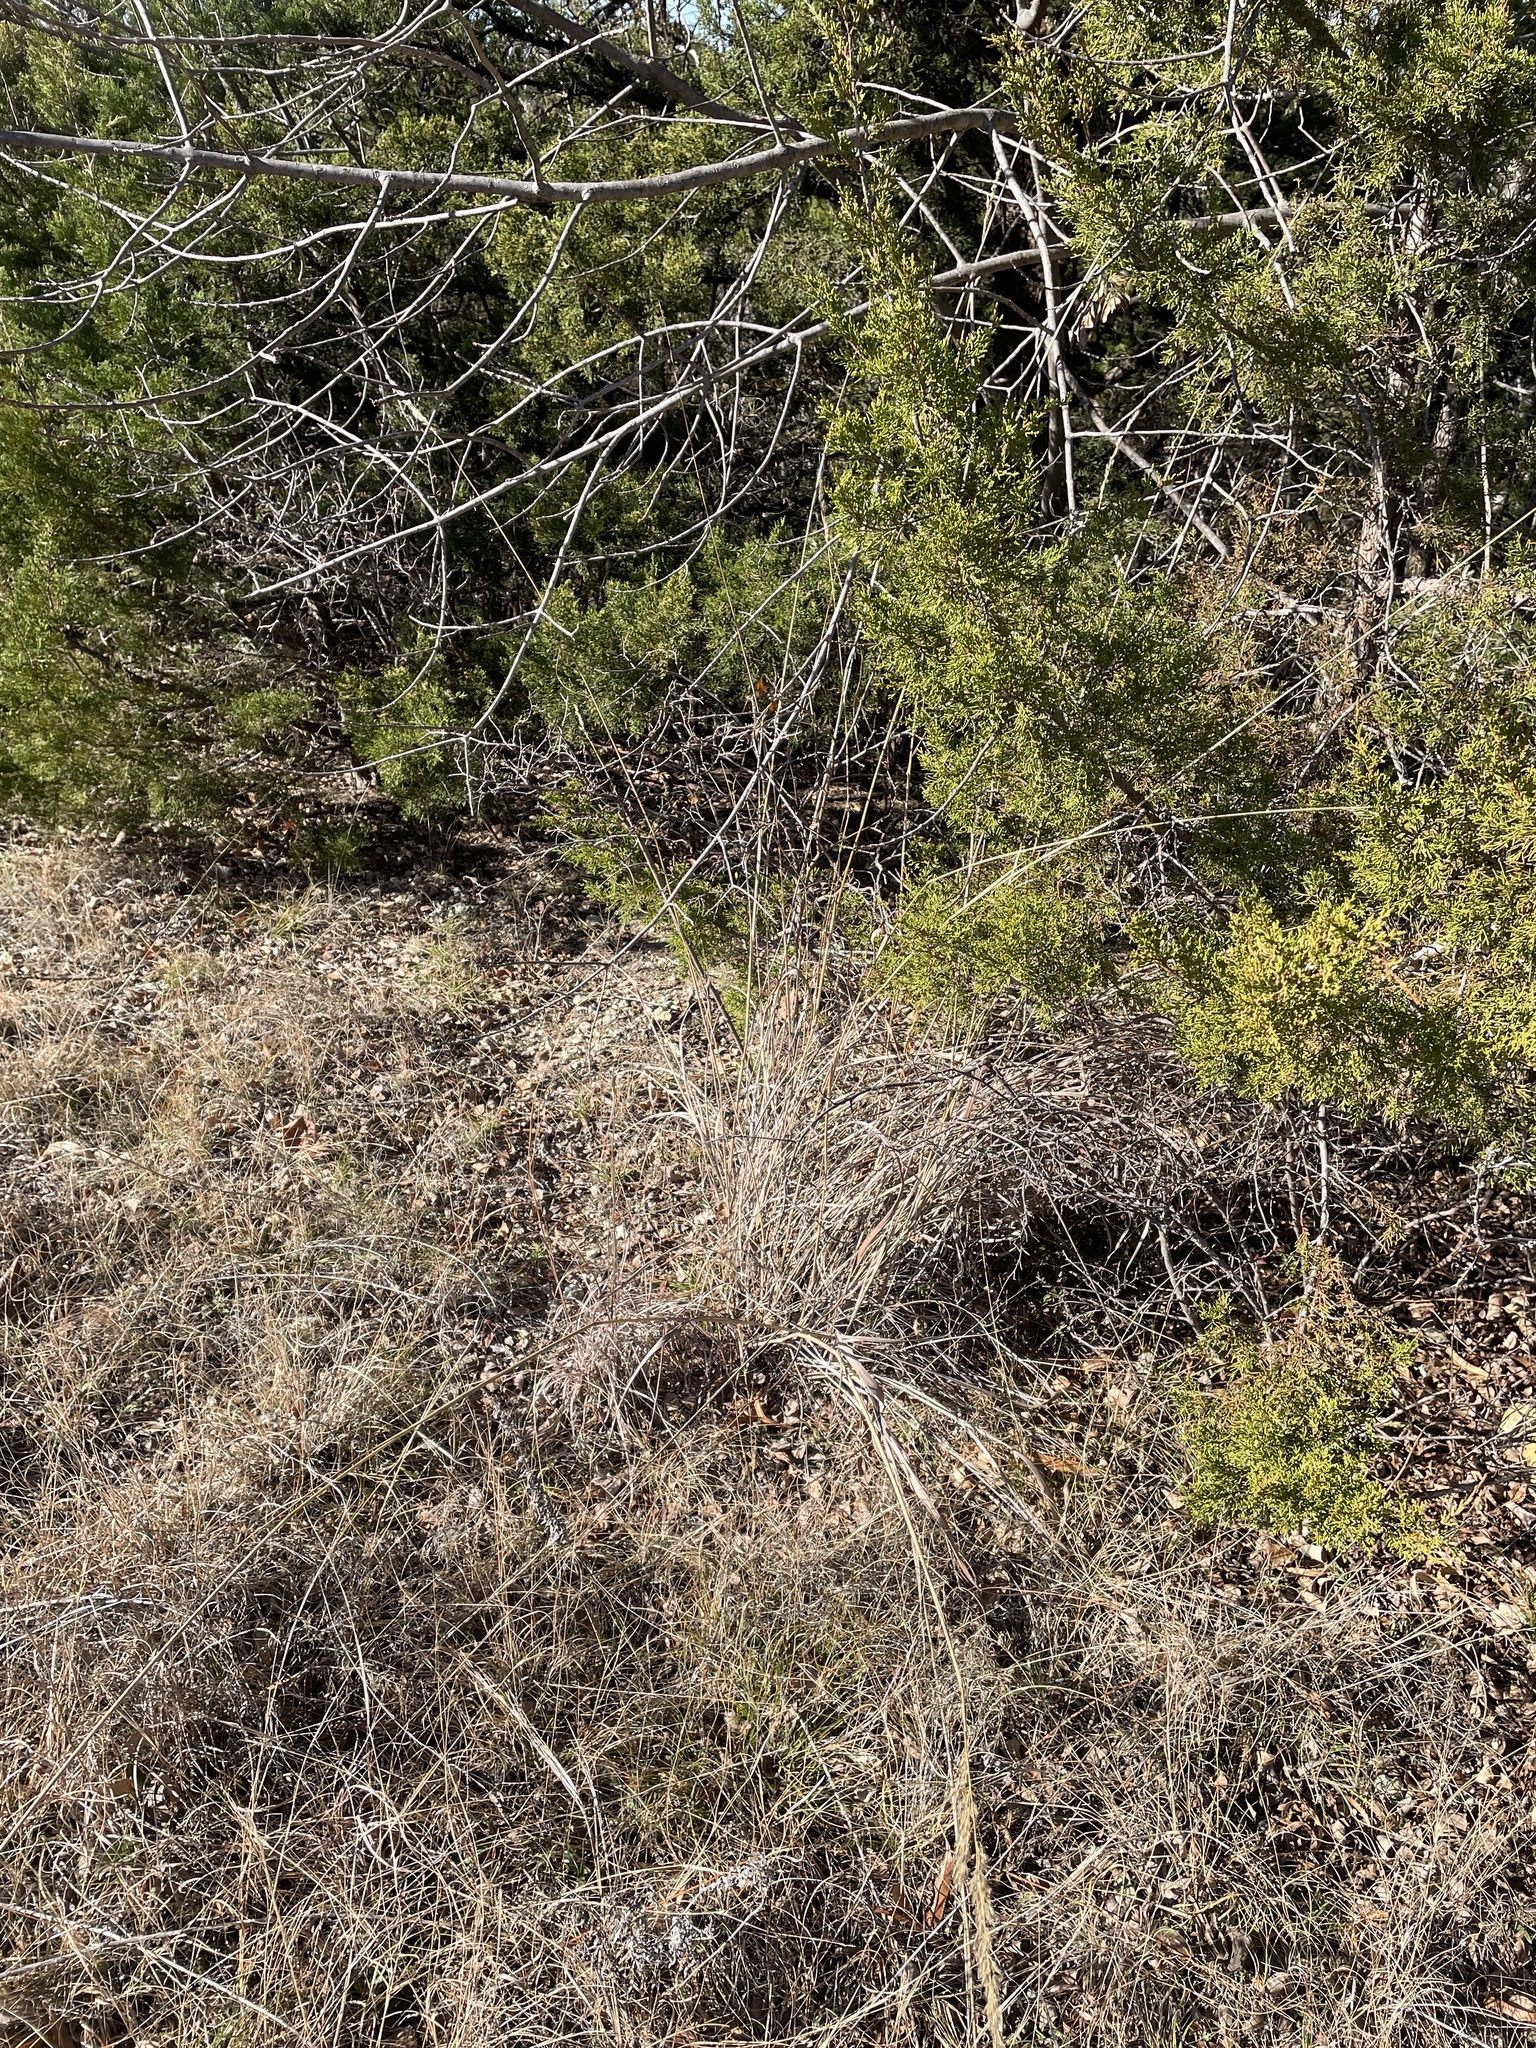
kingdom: Plantae
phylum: Tracheophyta
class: Liliopsida
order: Poales
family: Poaceae
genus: Sorghastrum
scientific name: Sorghastrum nutans
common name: Indian grass
